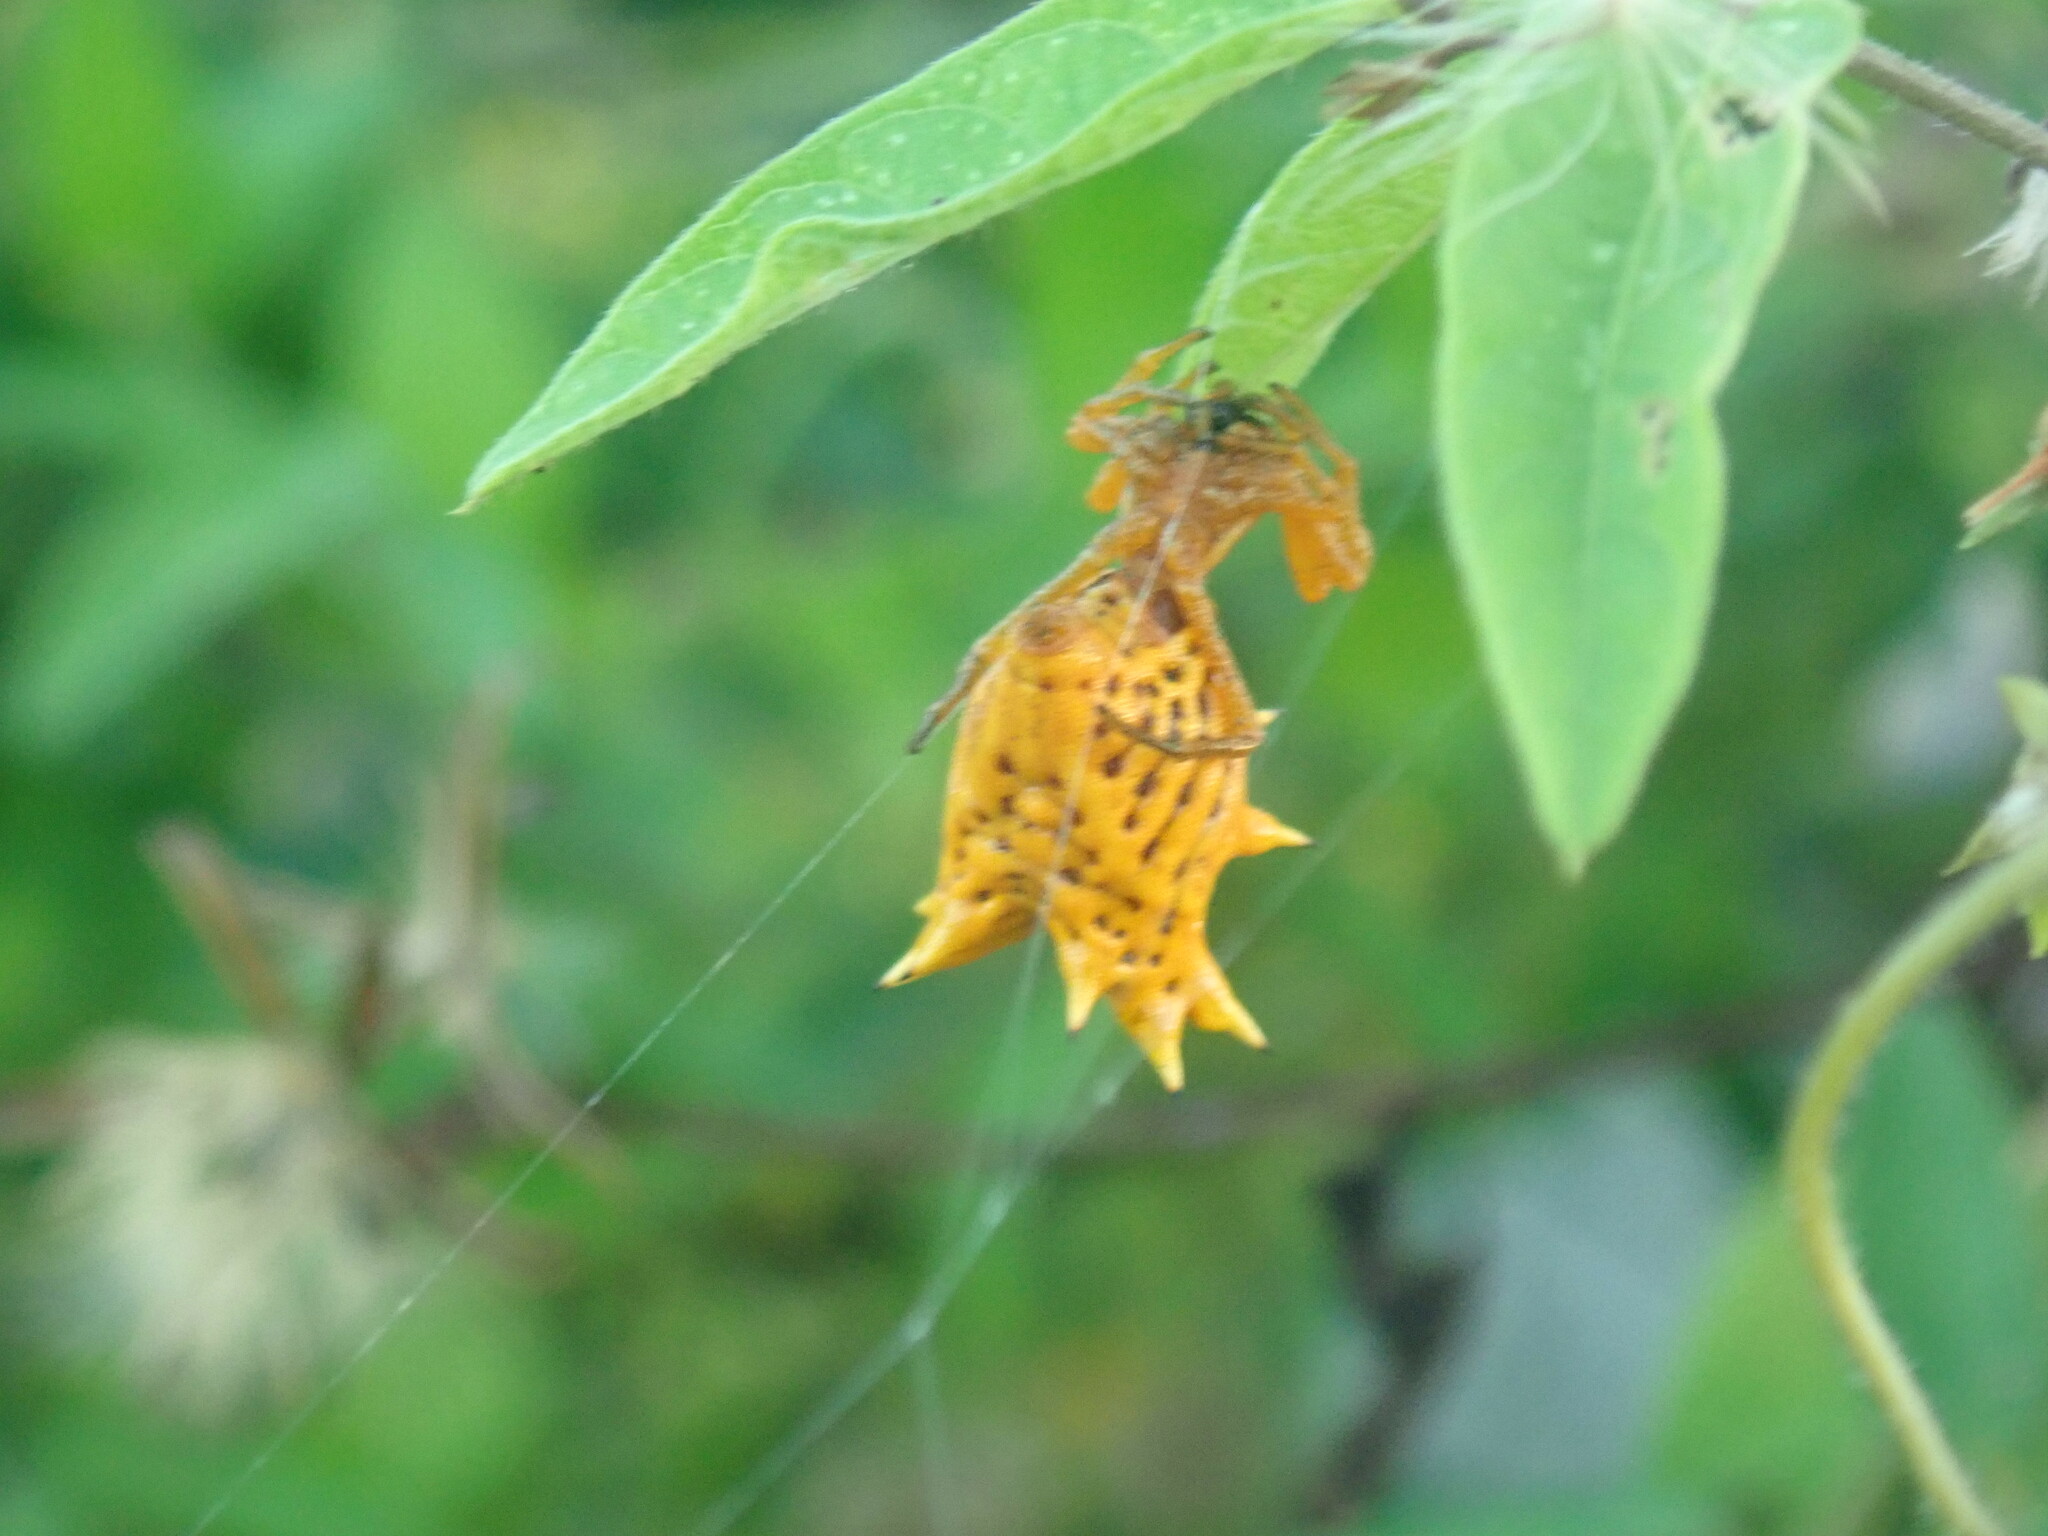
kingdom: Animalia
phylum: Arthropoda
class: Arachnida
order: Araneae
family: Araneidae
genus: Micrathena
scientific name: Micrathena gracilis
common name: Orb weavers
